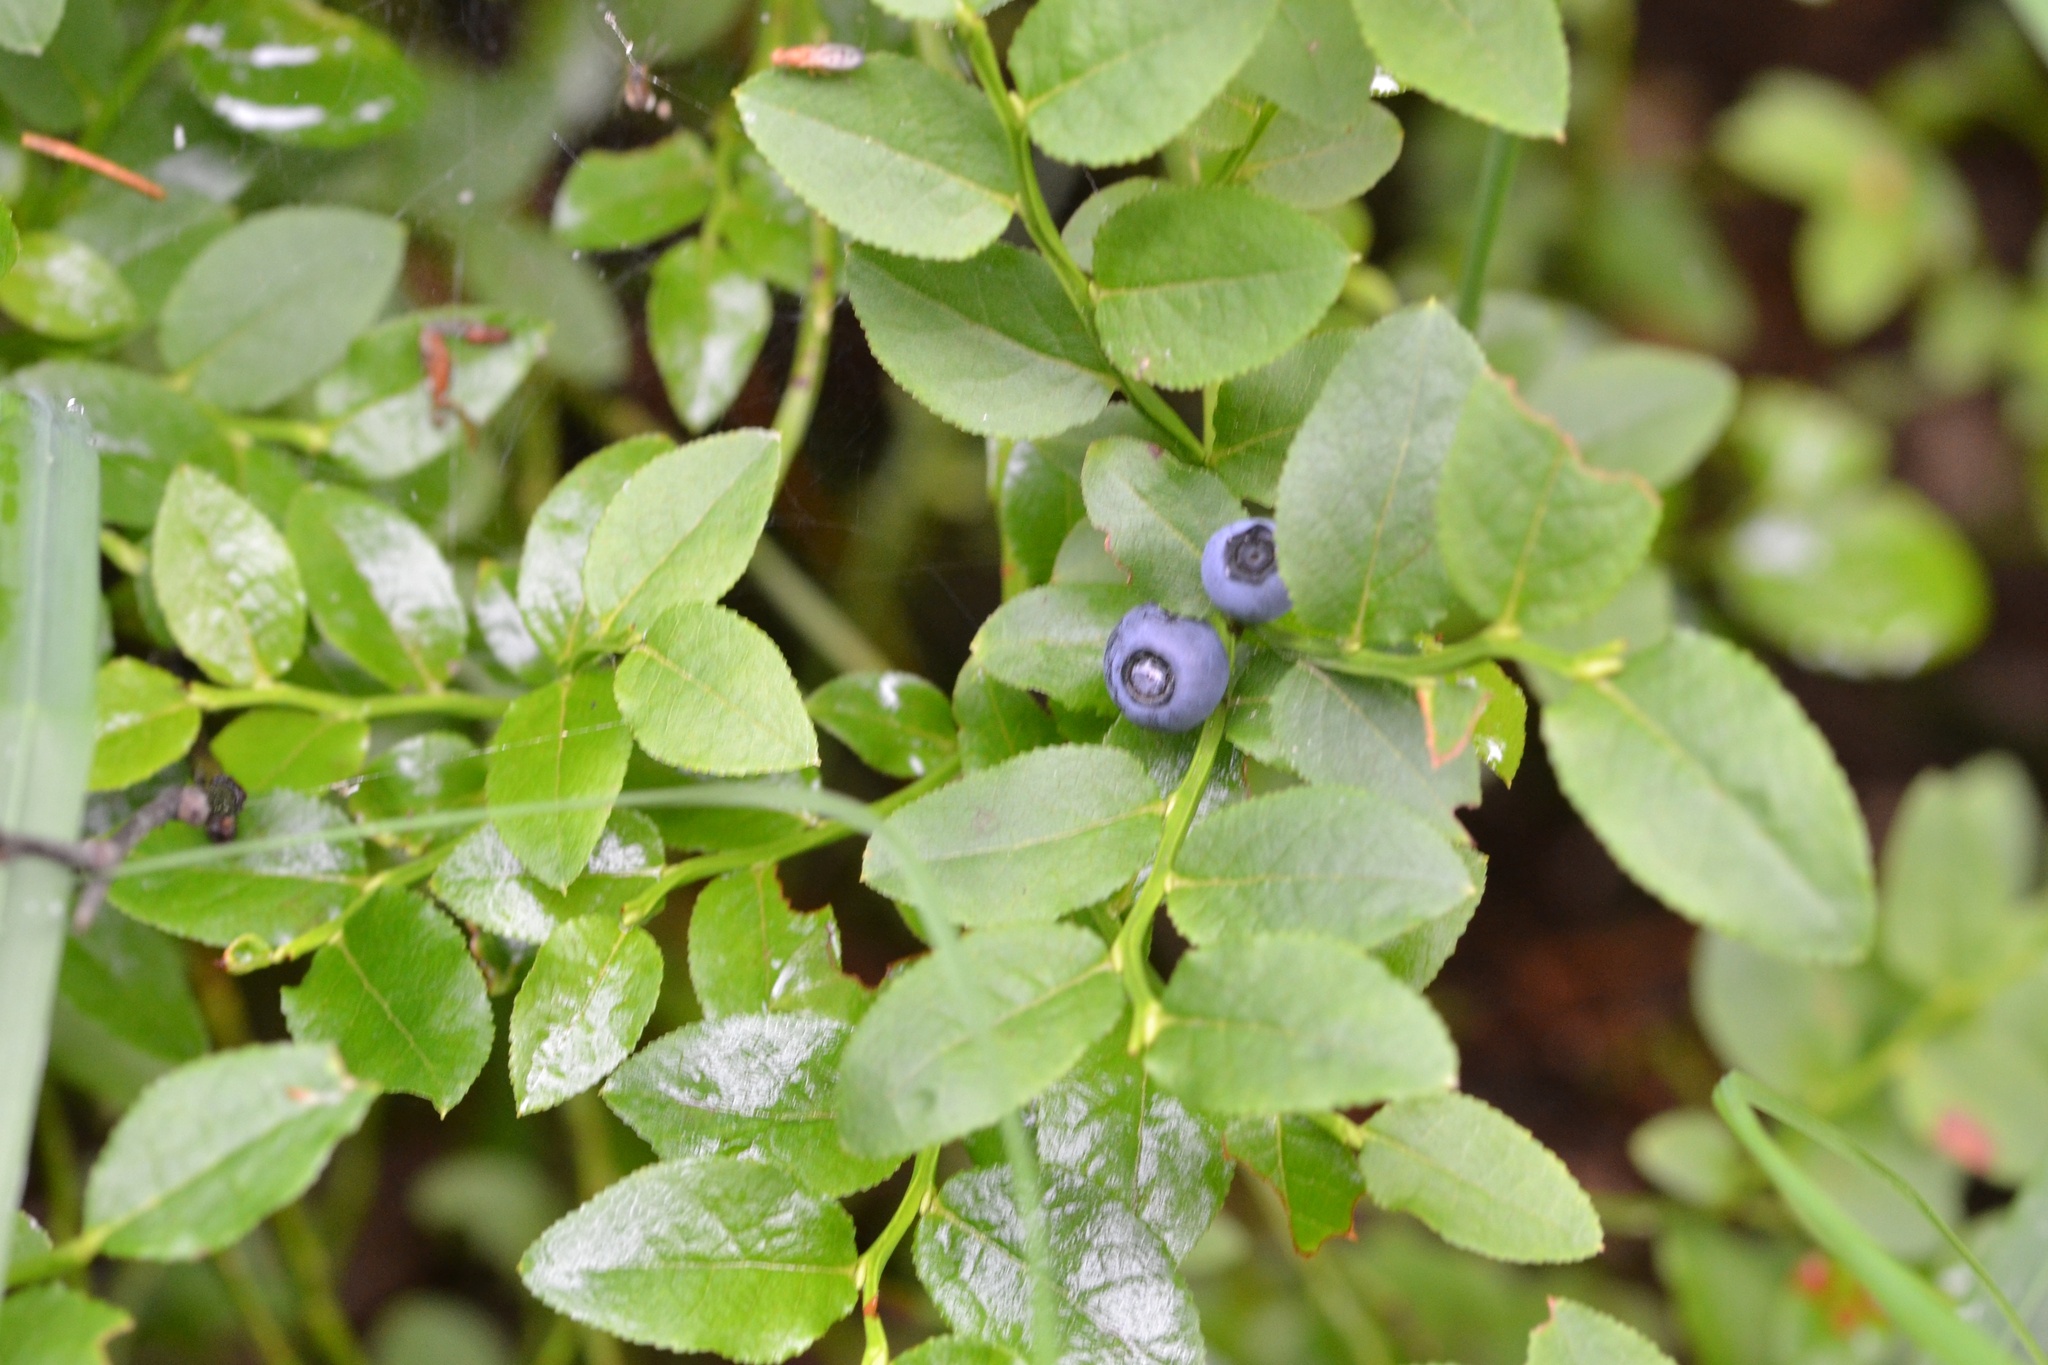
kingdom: Plantae
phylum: Tracheophyta
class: Magnoliopsida
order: Ericales
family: Ericaceae
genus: Vaccinium
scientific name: Vaccinium myrtillus
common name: Bilberry
